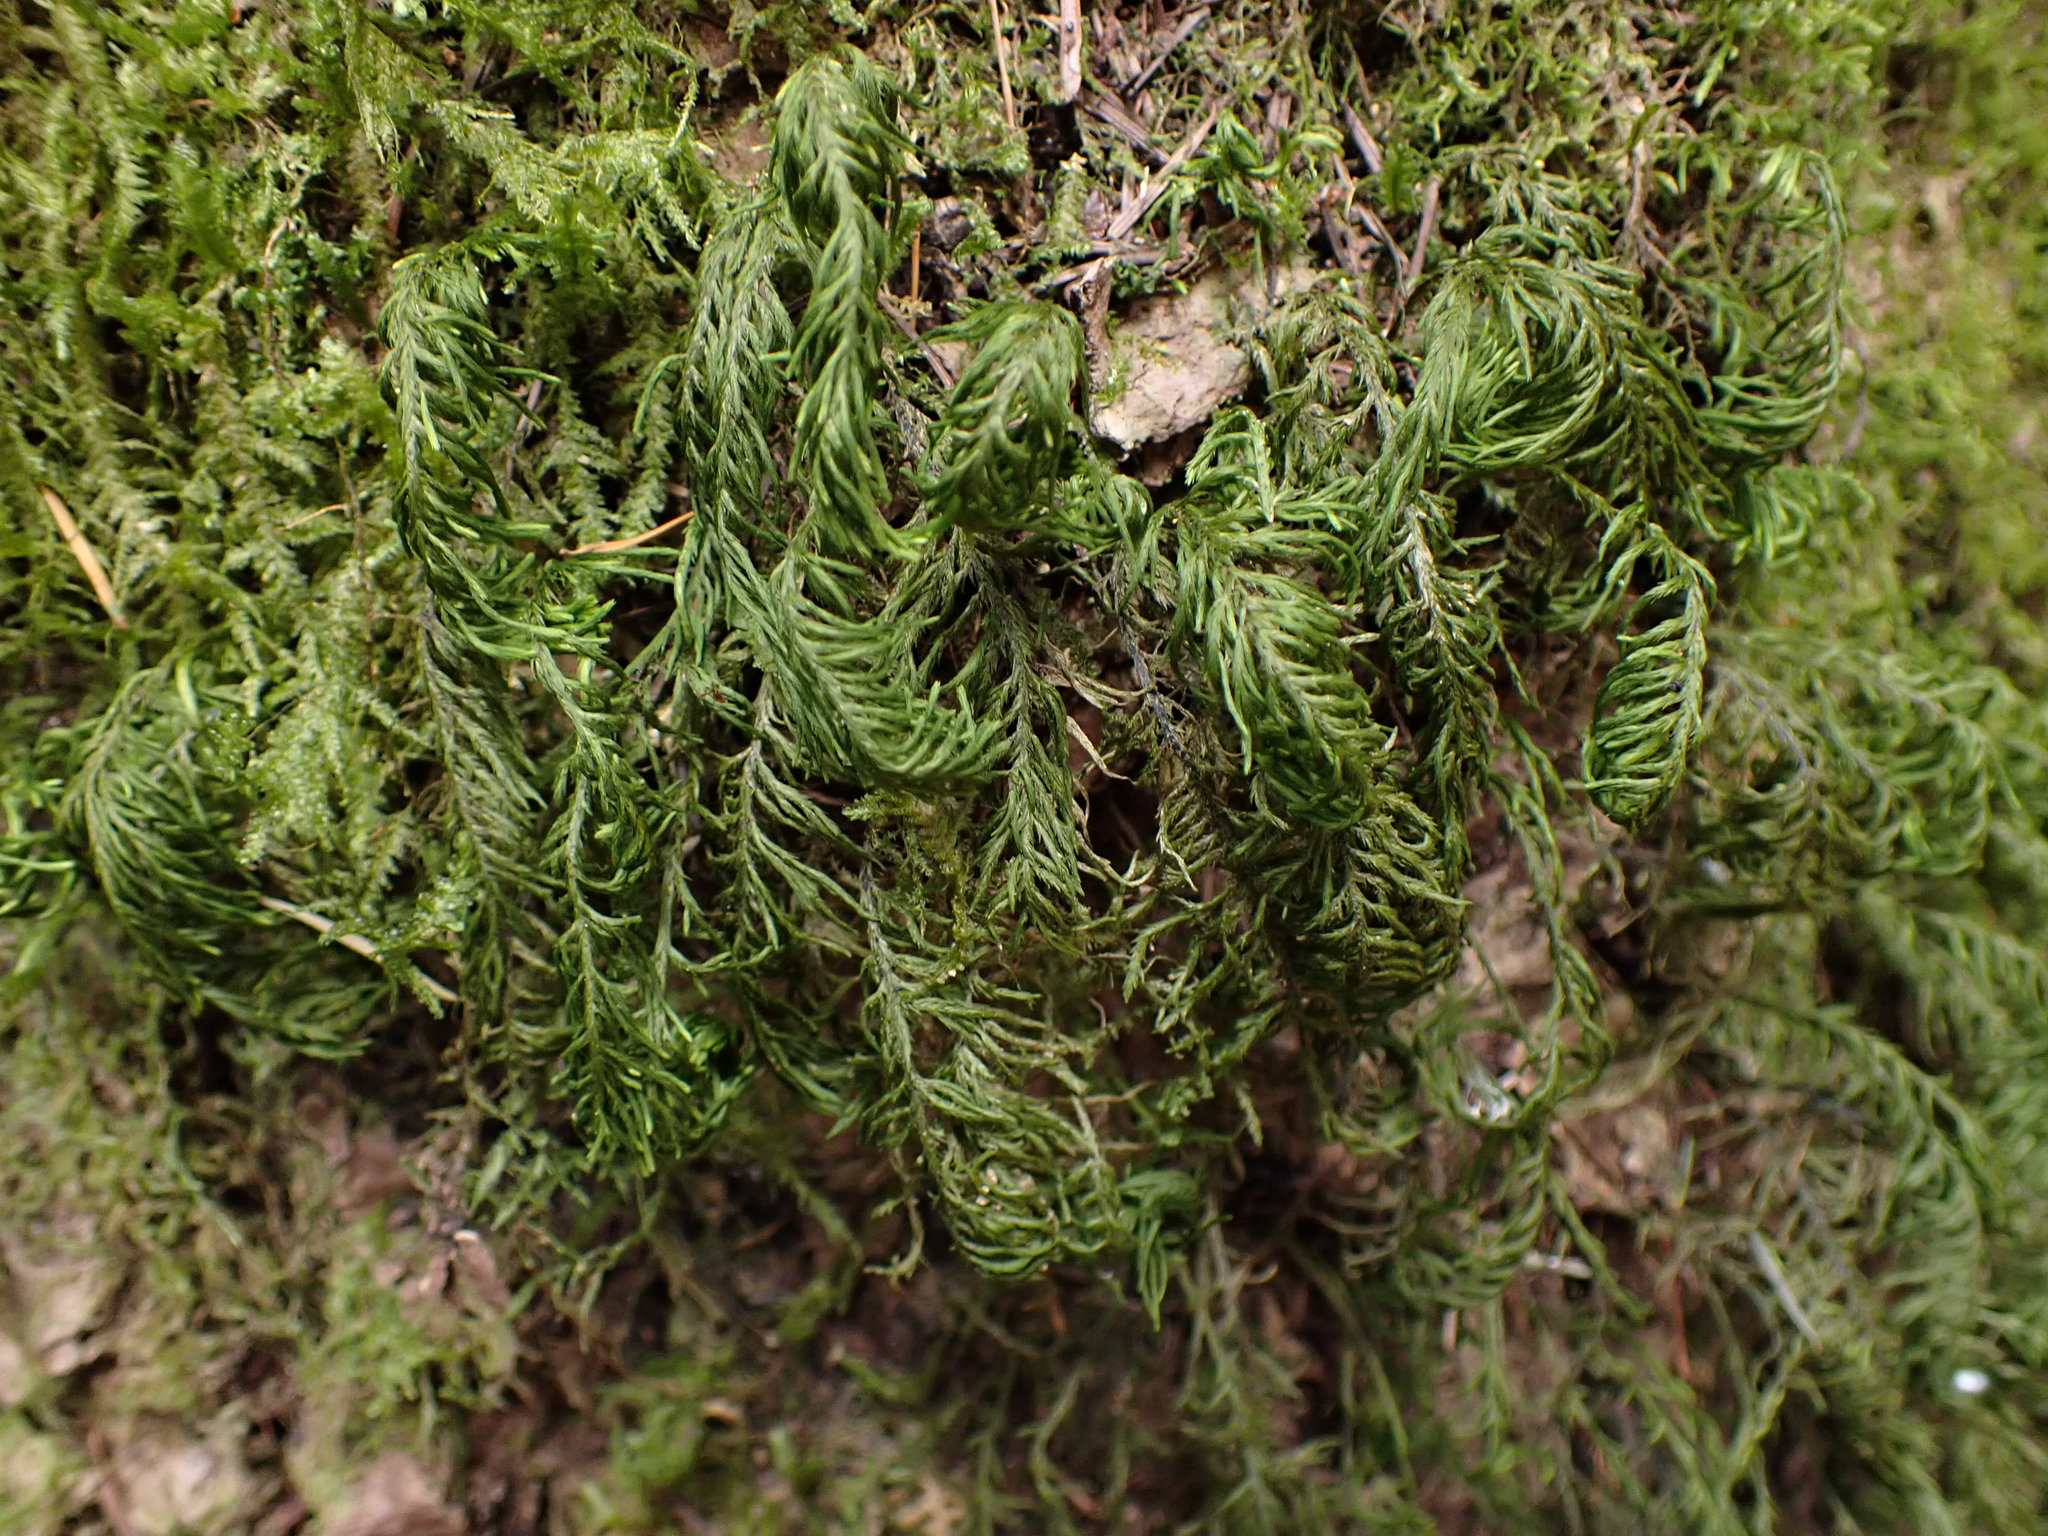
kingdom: Plantae
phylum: Bryophyta
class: Bryopsida
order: Hypnales
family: Cryphaeaceae
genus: Dendroalsia
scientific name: Dendroalsia abietina
